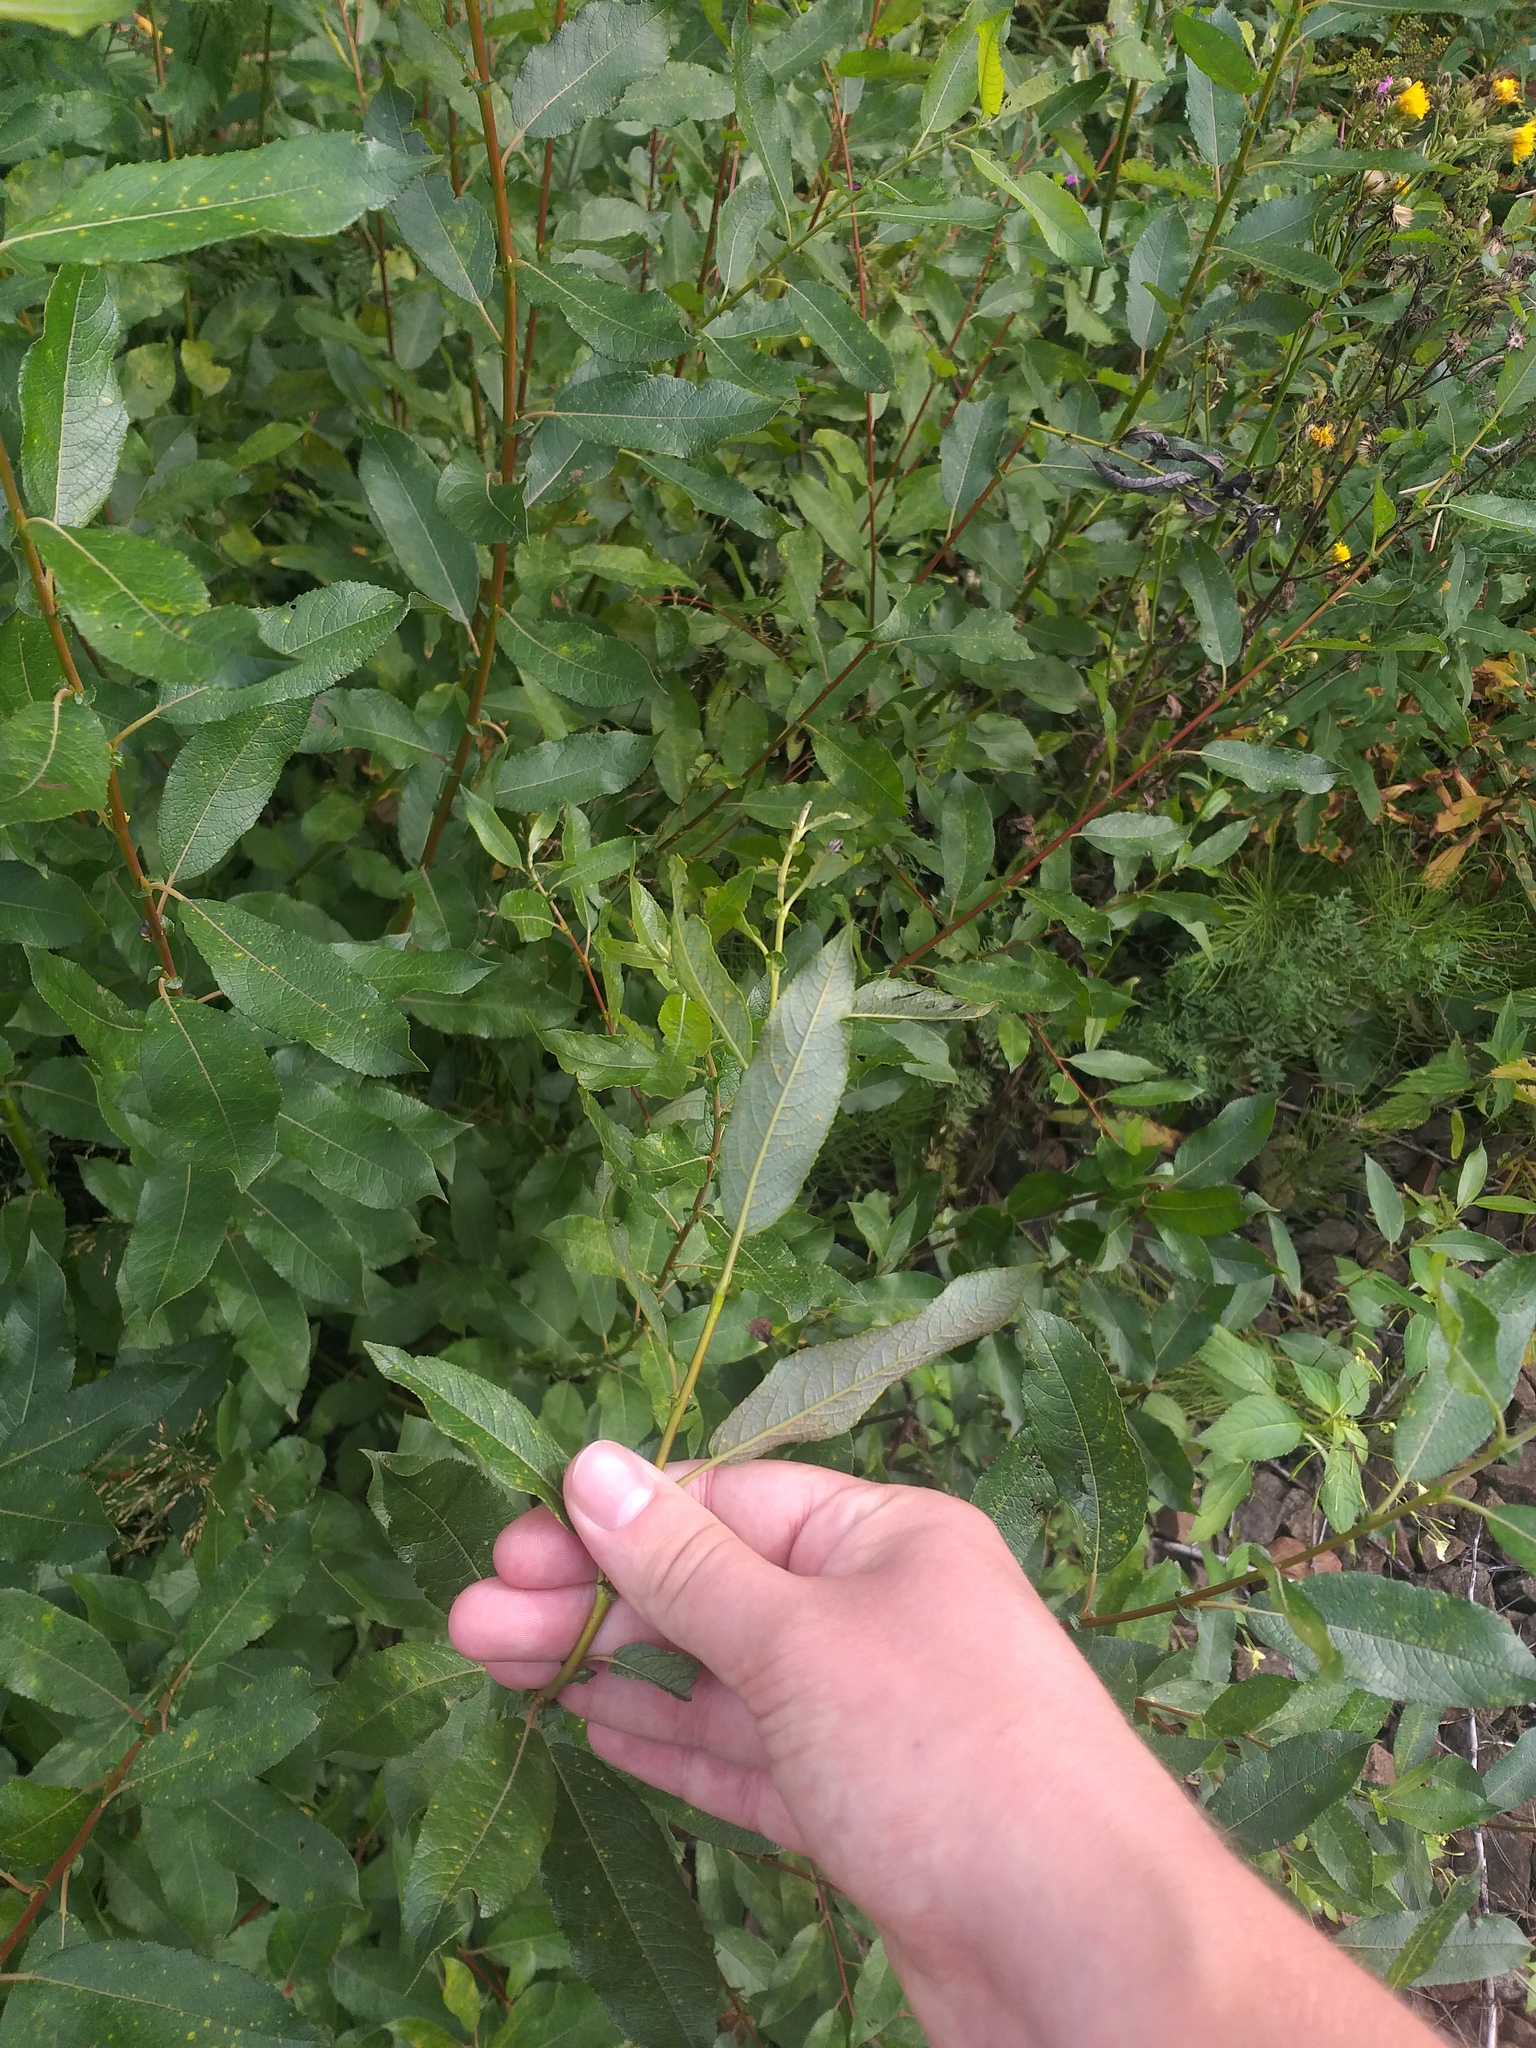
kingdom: Plantae
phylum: Tracheophyta
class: Magnoliopsida
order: Malpighiales
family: Salicaceae
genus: Salix
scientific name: Salix myrsinifolia
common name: Dark-leaved willow
